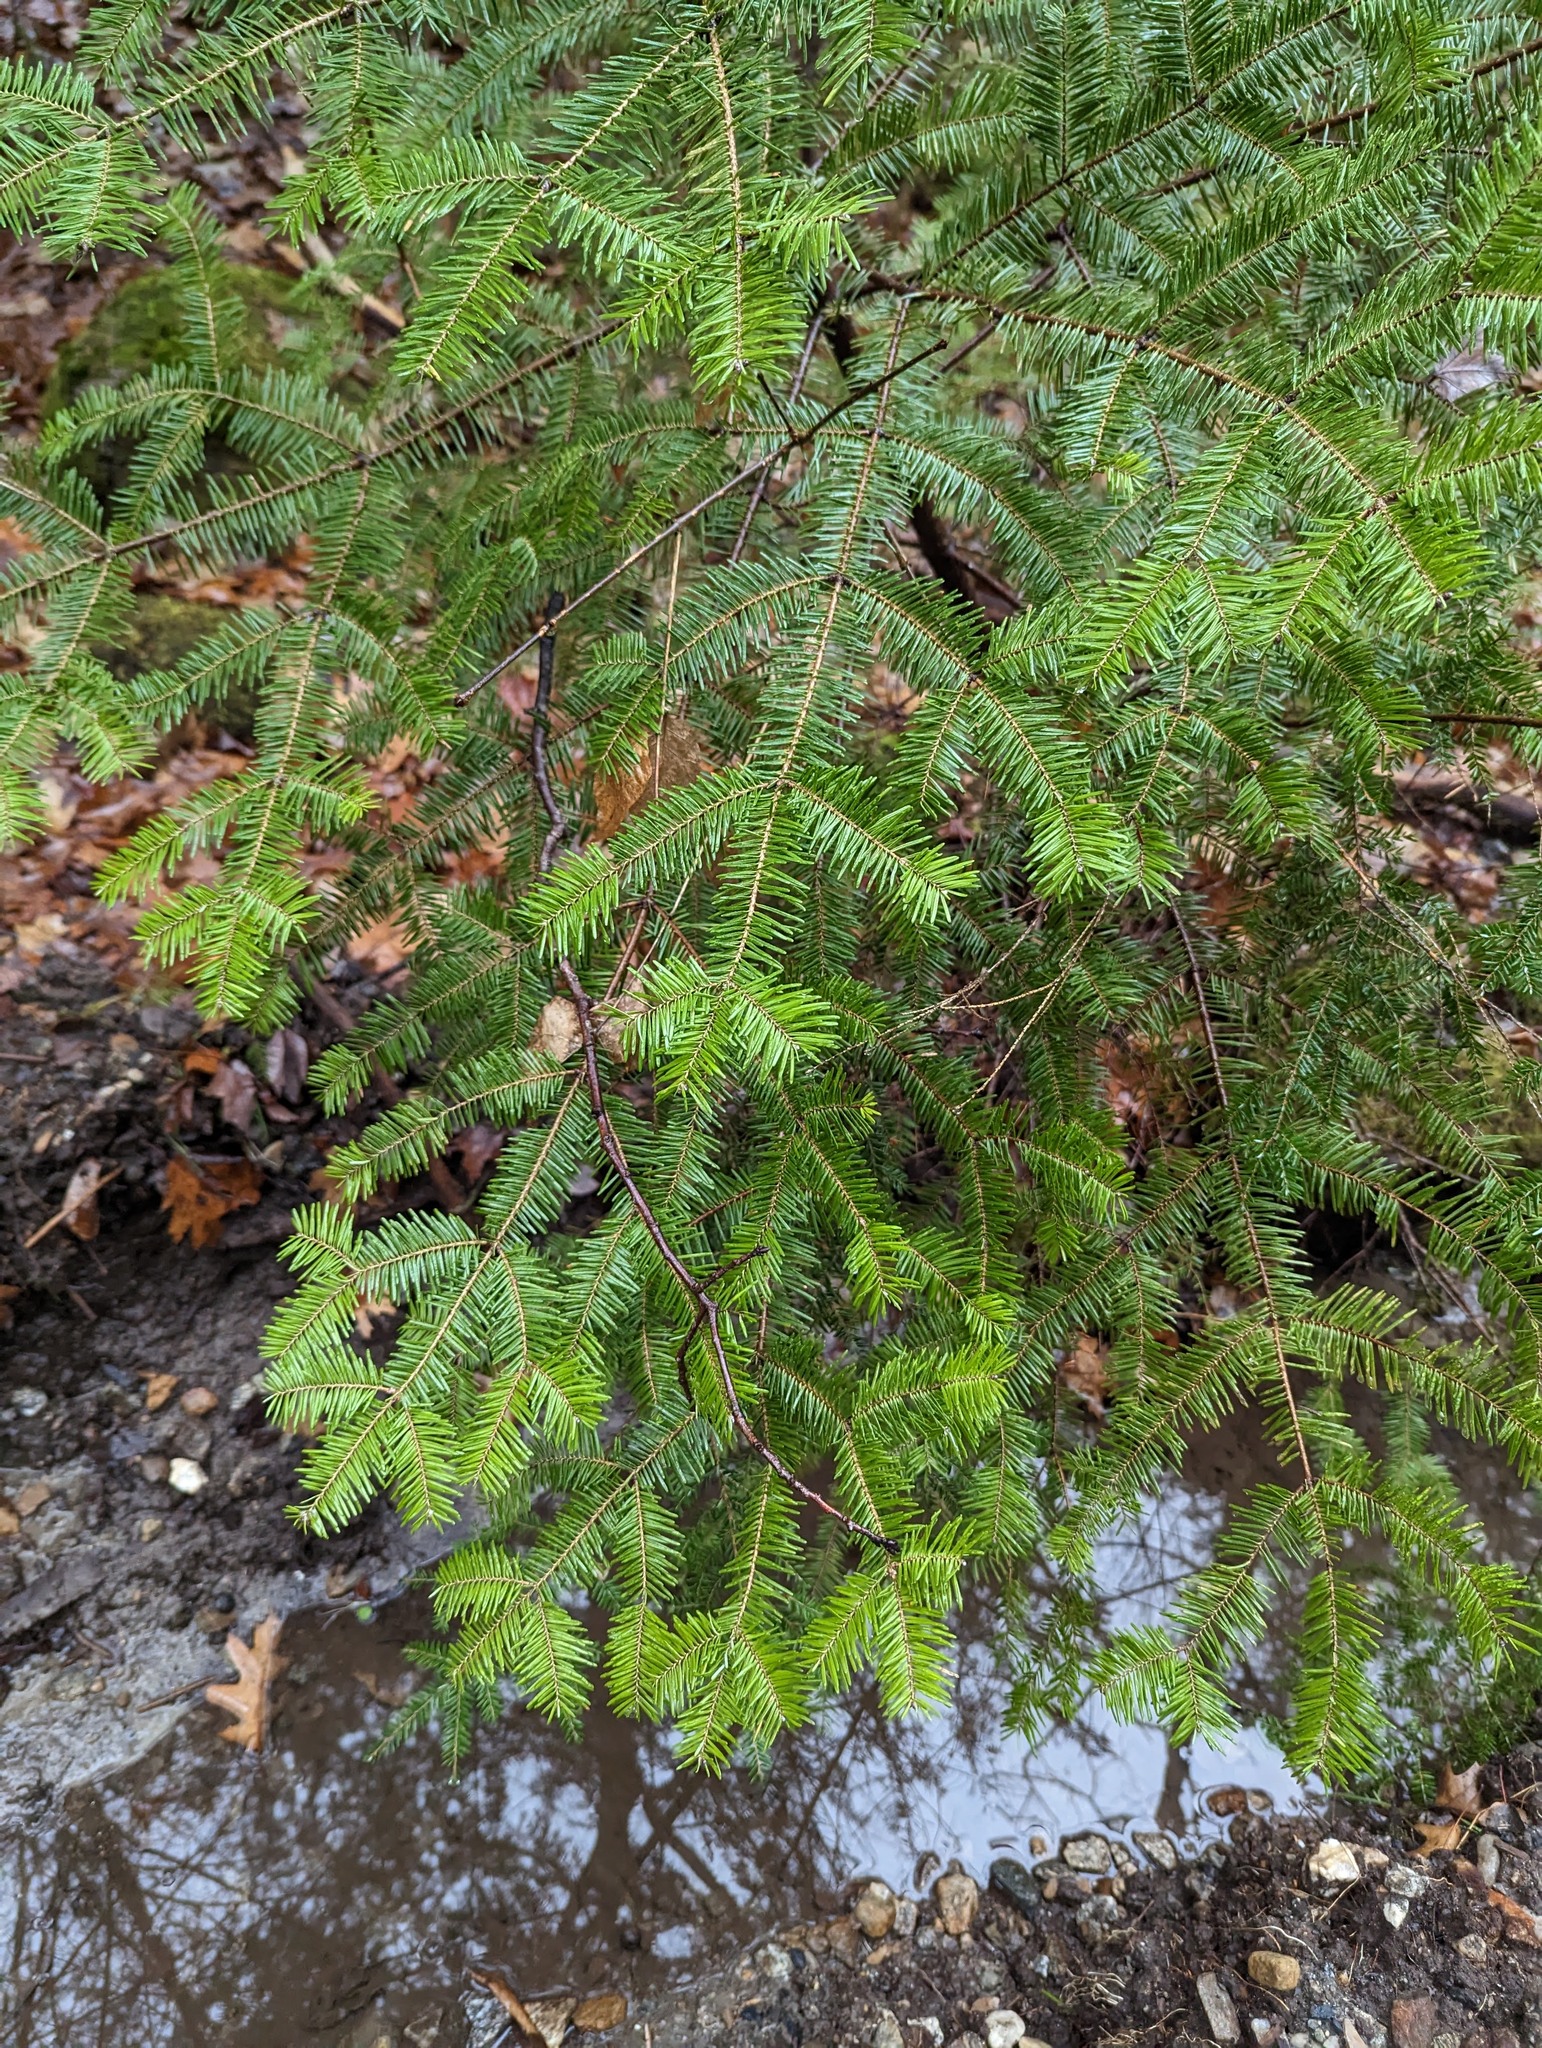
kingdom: Plantae
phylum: Tracheophyta
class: Pinopsida
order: Pinales
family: Pinaceae
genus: Abies
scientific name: Abies balsamea
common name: Balsam fir
